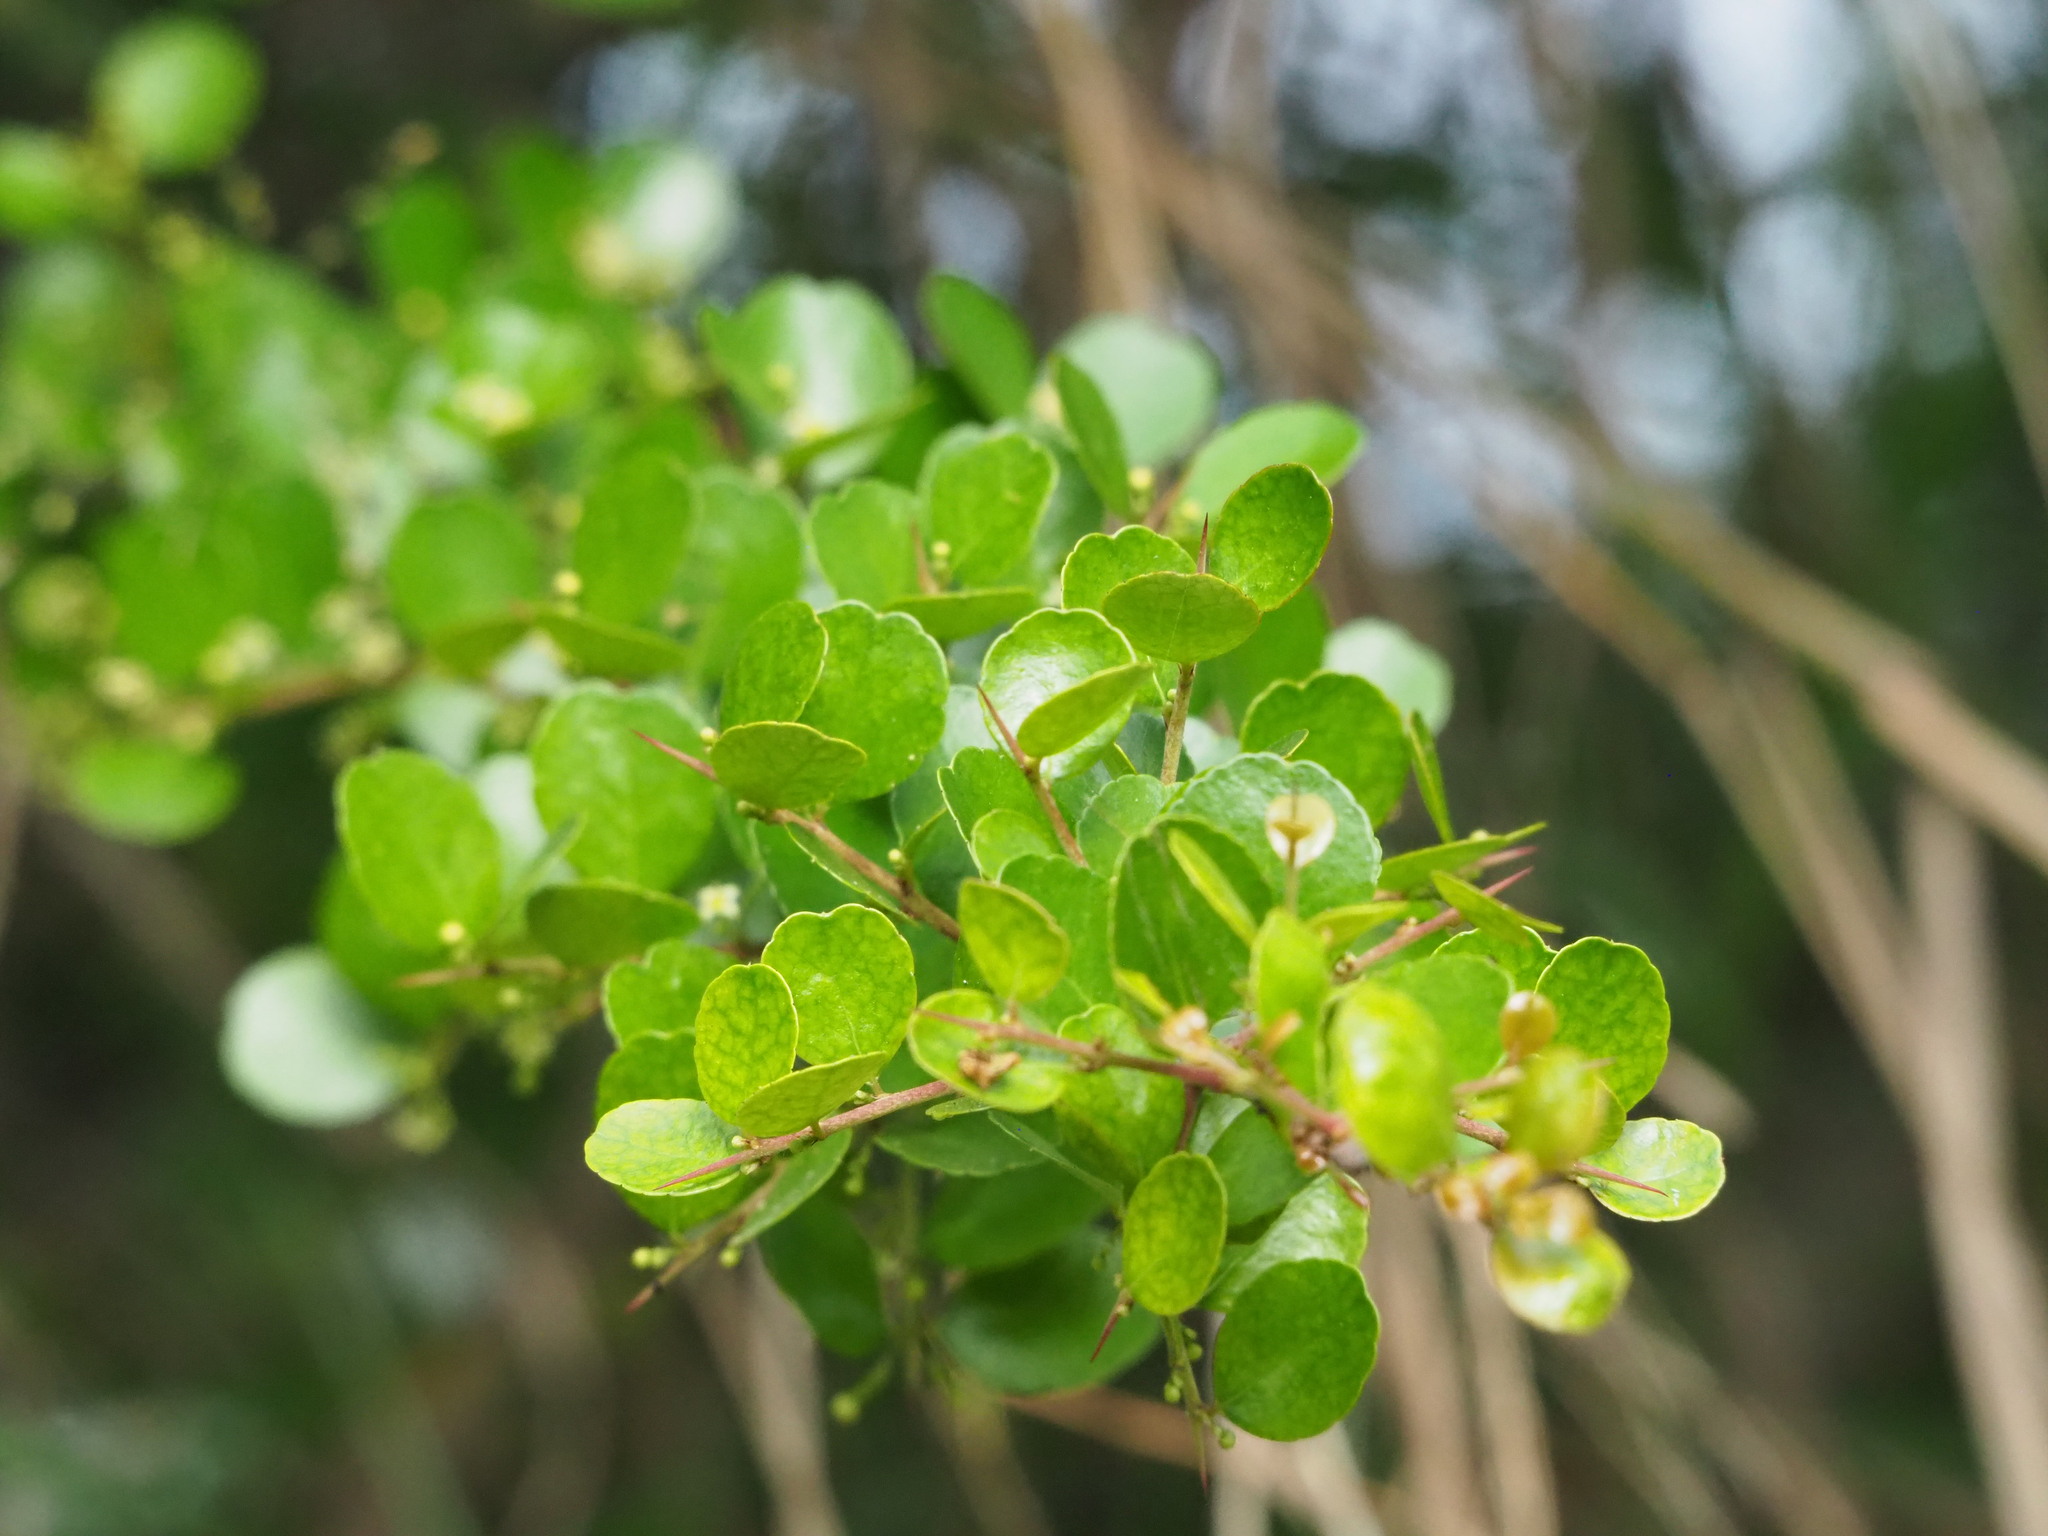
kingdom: Plantae
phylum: Tracheophyta
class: Magnoliopsida
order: Celastrales
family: Celastraceae
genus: Gymnosporia
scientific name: Gymnosporia diversifolia
